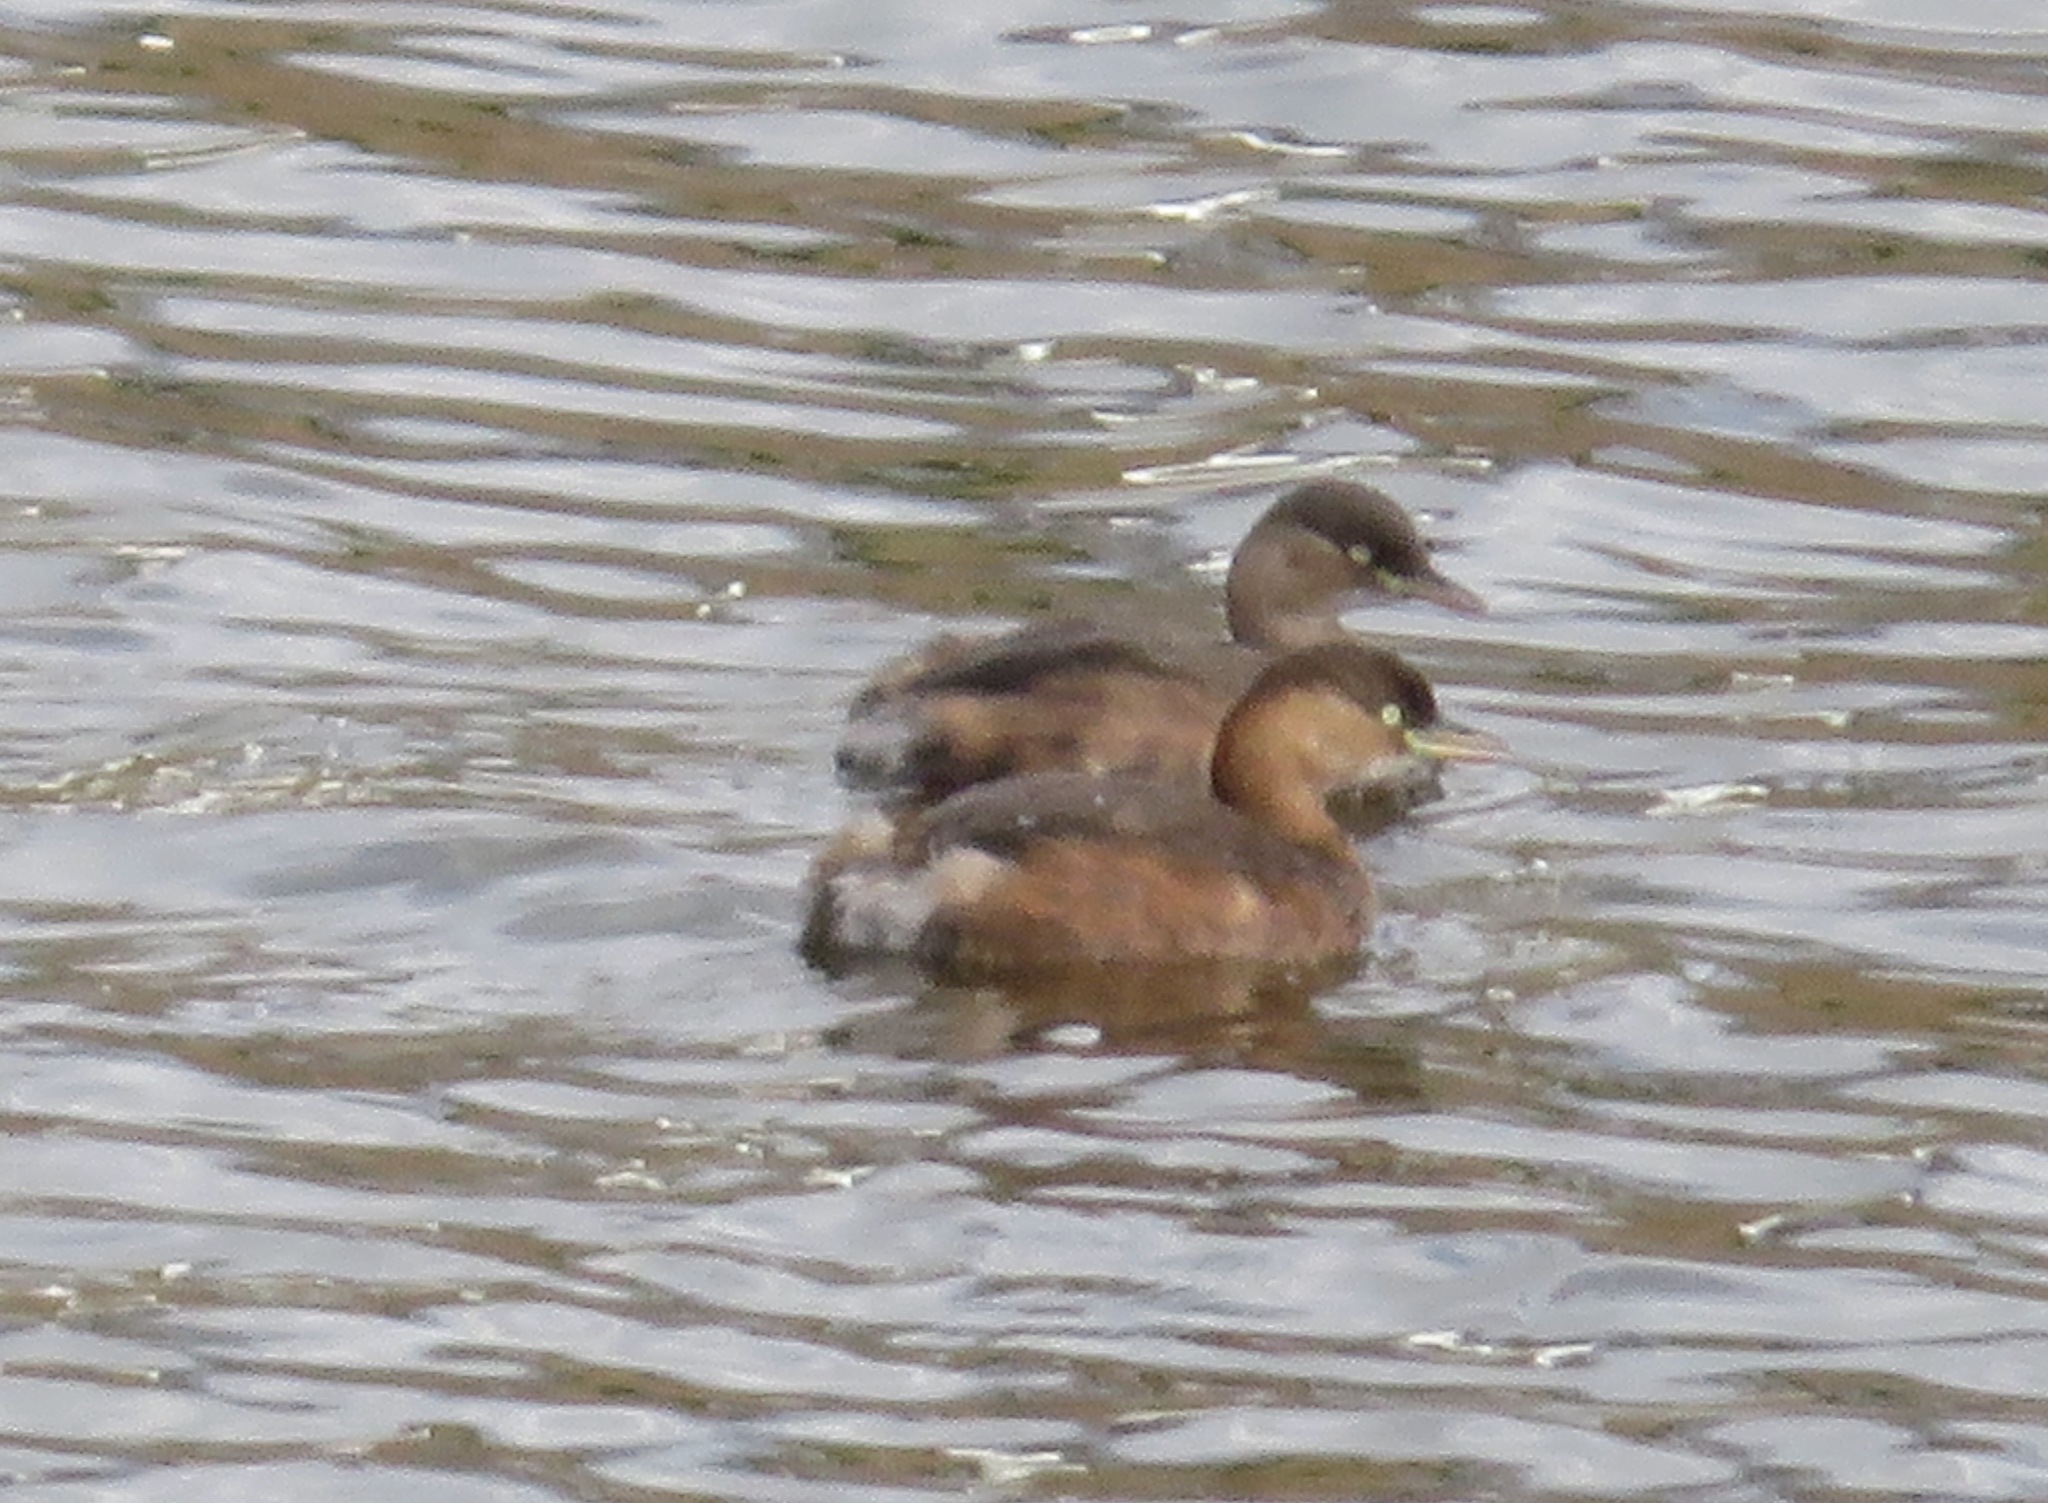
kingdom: Animalia
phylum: Chordata
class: Aves
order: Podicipediformes
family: Podicipedidae
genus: Tachybaptus
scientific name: Tachybaptus ruficollis
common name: Little grebe
